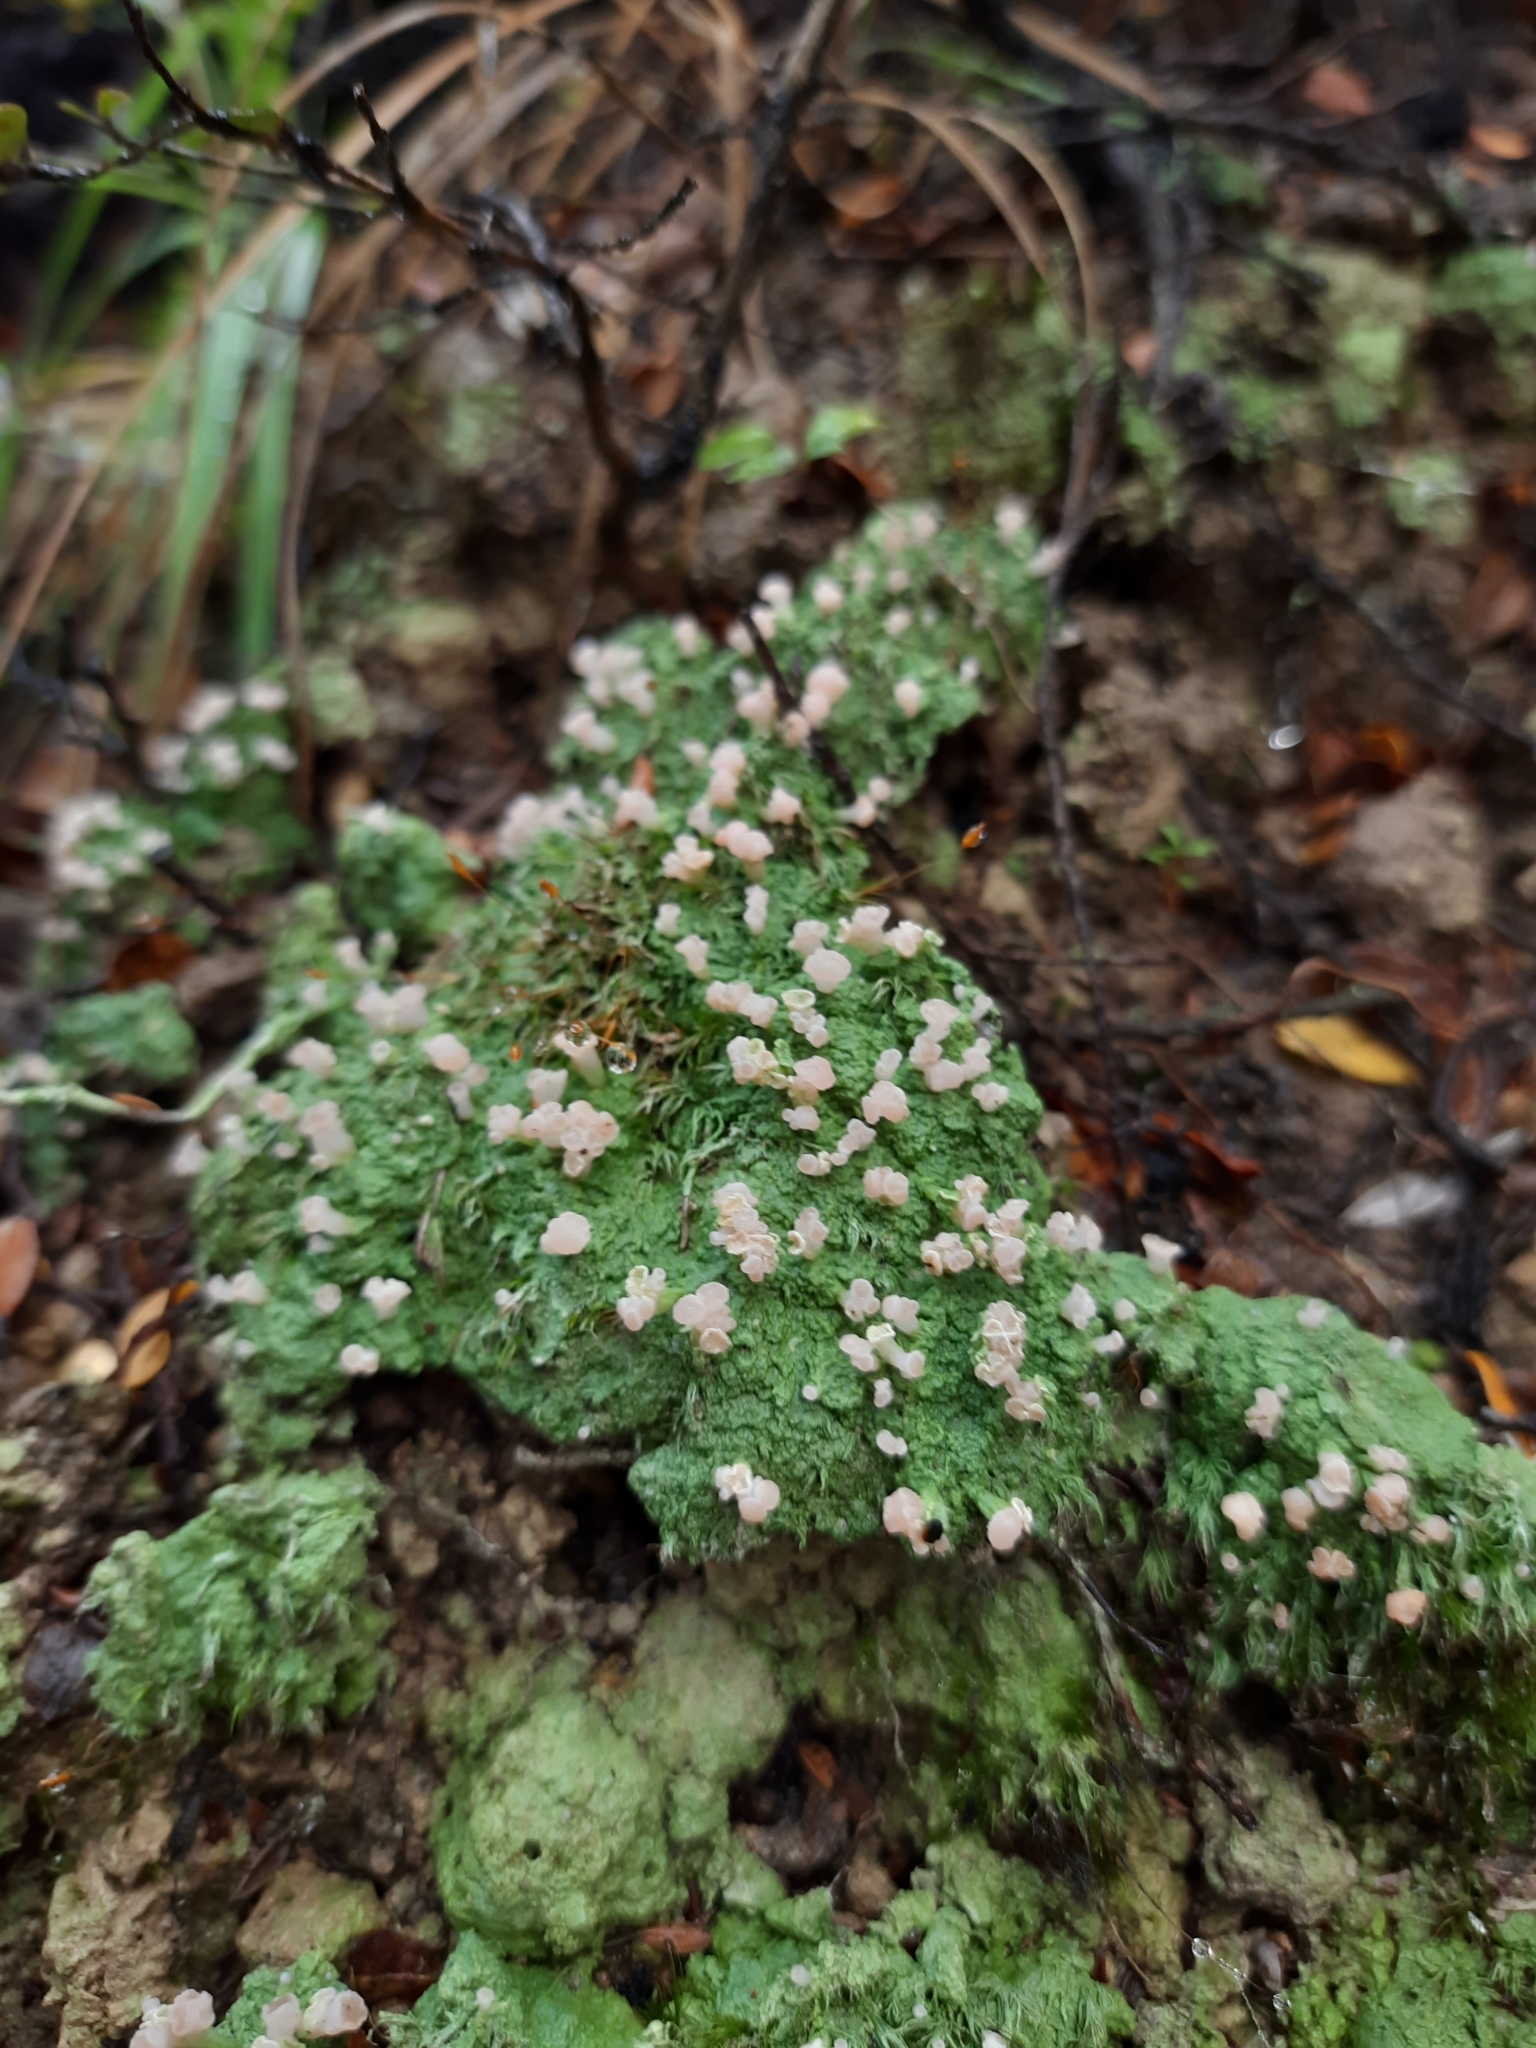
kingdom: Fungi
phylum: Ascomycota
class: Lecanoromycetes
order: Baeomycetales
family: Baeomycetaceae
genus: Baeomyces
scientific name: Baeomyces heteromorphus
